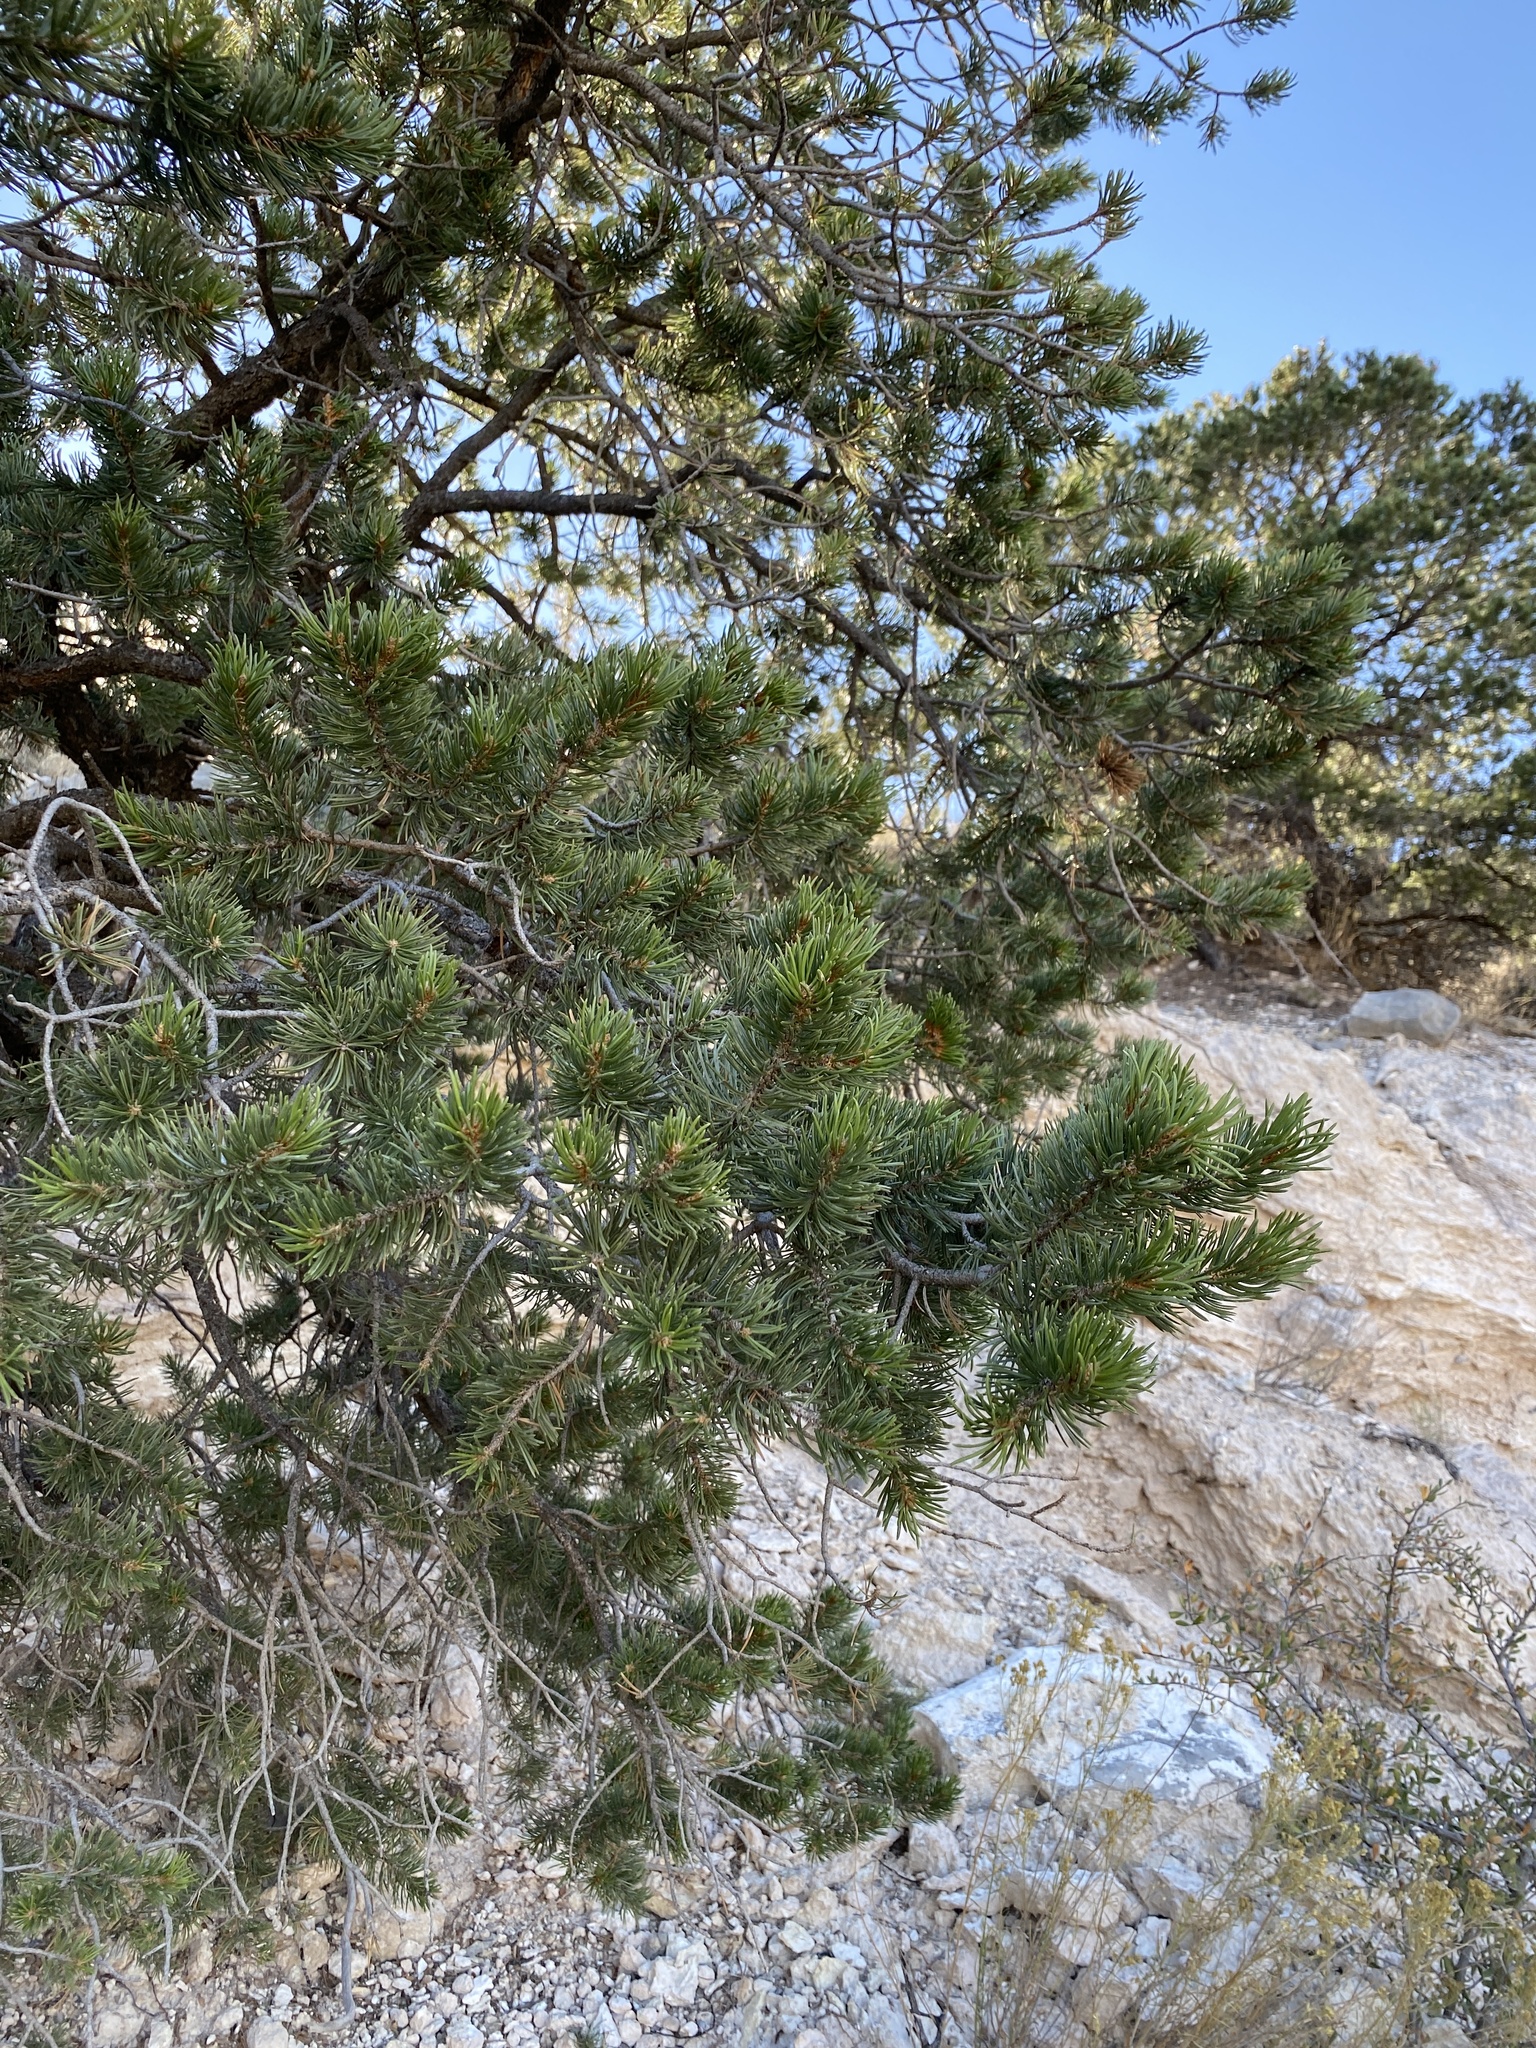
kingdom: Plantae
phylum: Tracheophyta
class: Pinopsida
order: Pinales
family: Pinaceae
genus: Pinus
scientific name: Pinus edulis
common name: Colorado pinyon
